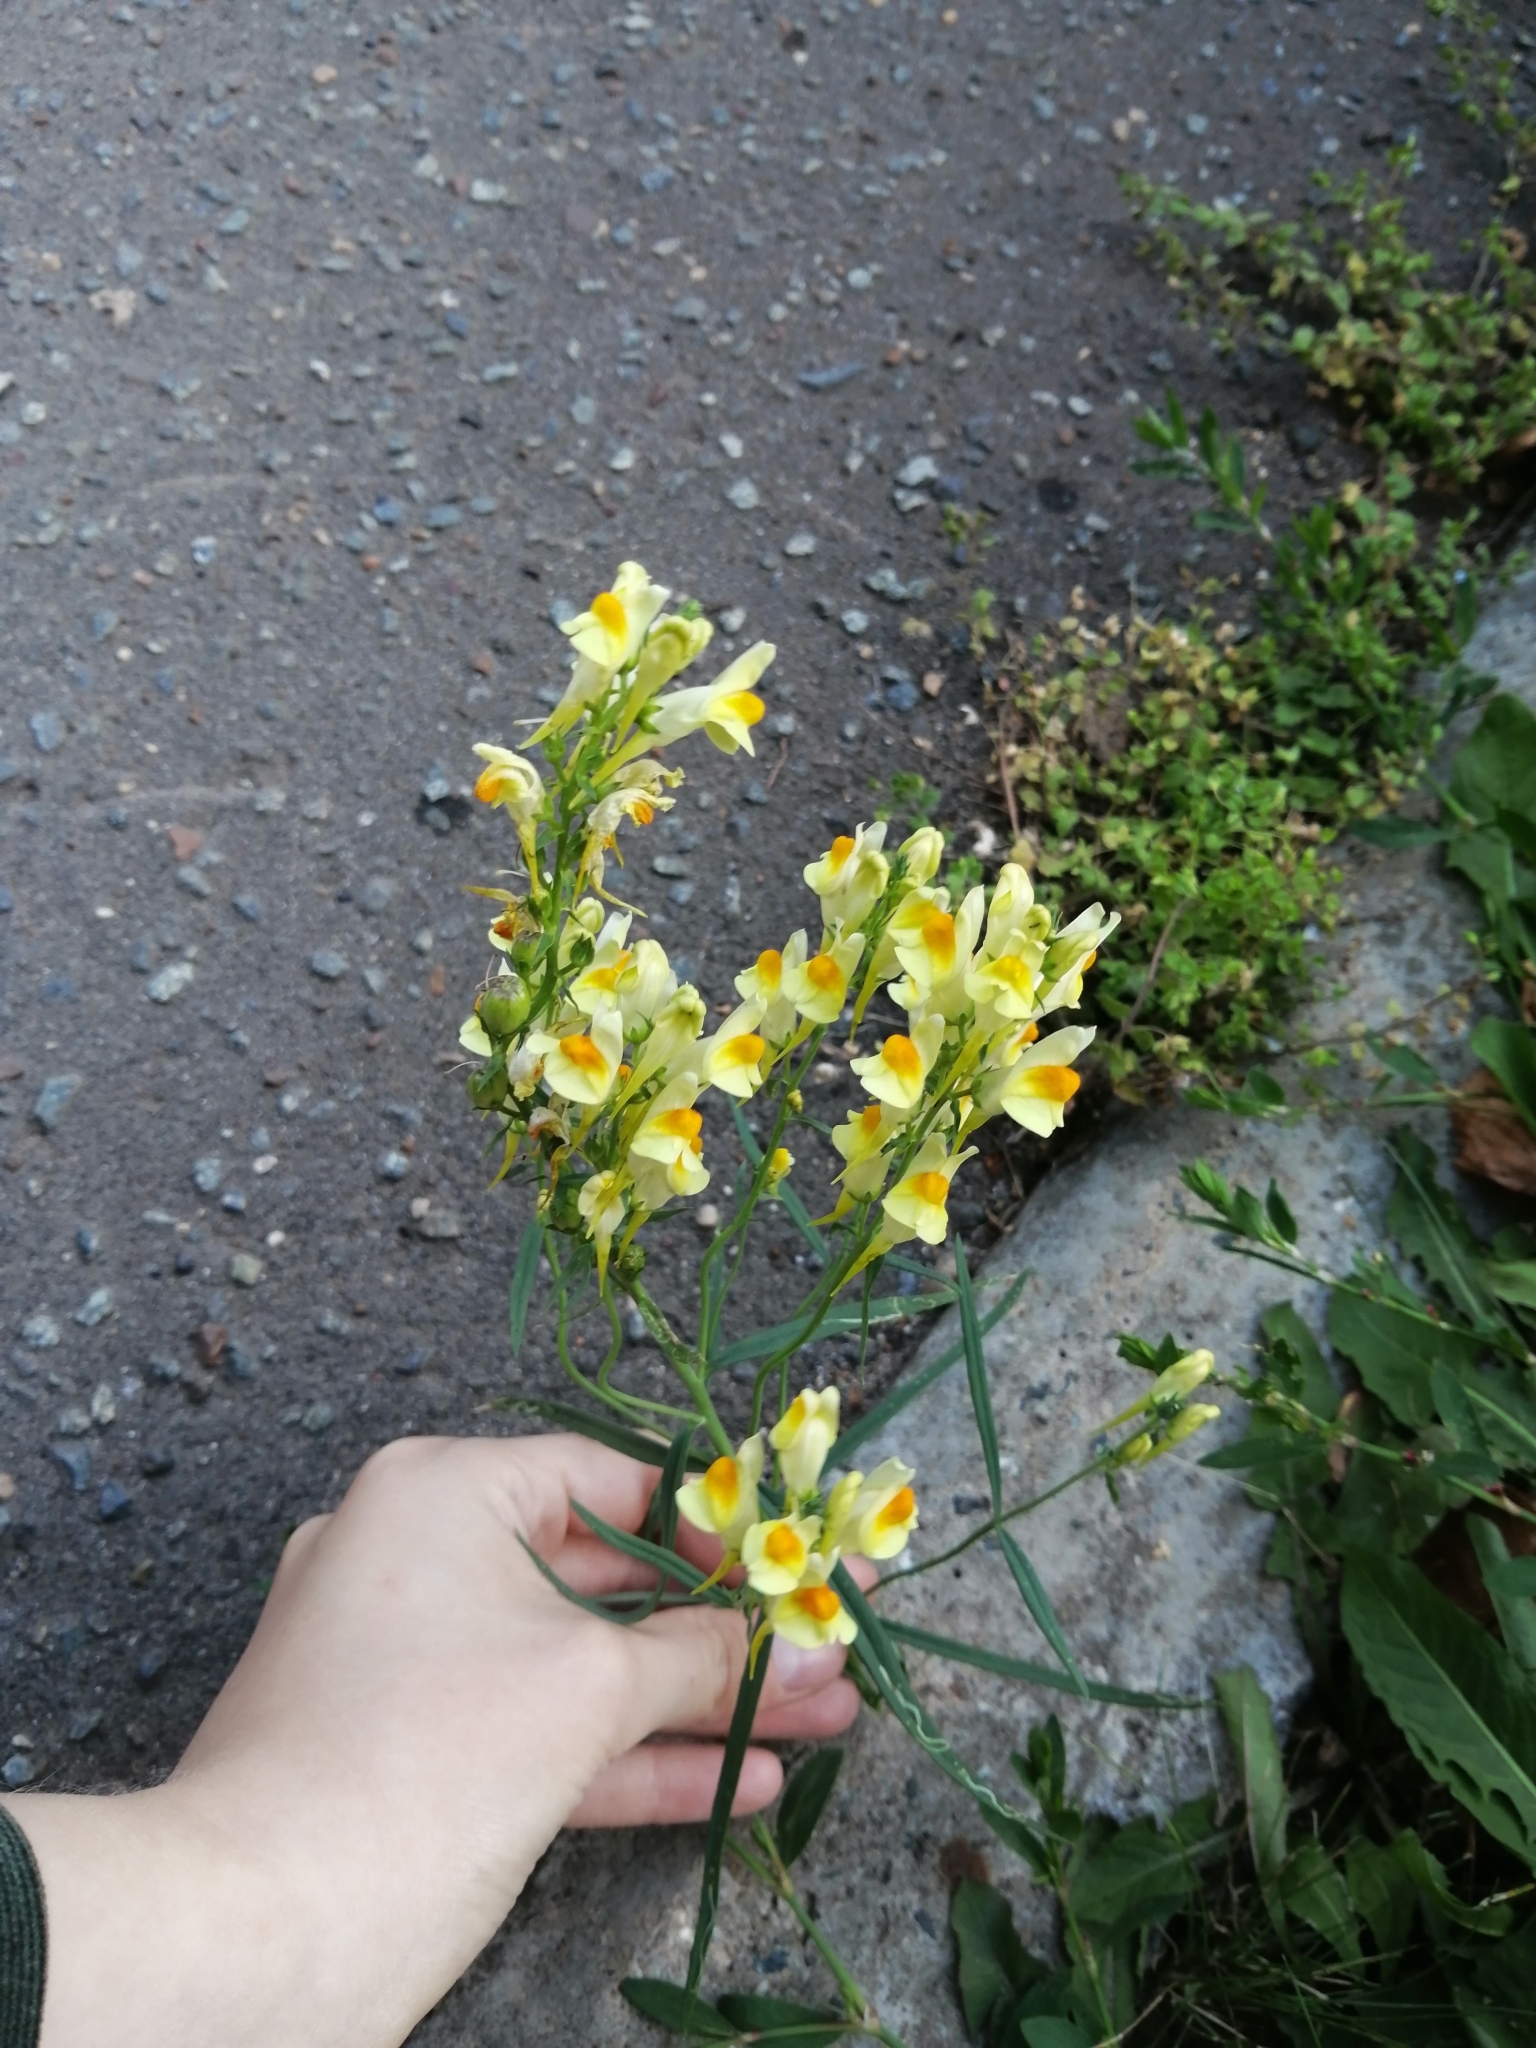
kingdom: Plantae
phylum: Tracheophyta
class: Magnoliopsida
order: Lamiales
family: Plantaginaceae
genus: Linaria
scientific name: Linaria vulgaris
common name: Butter and eggs
